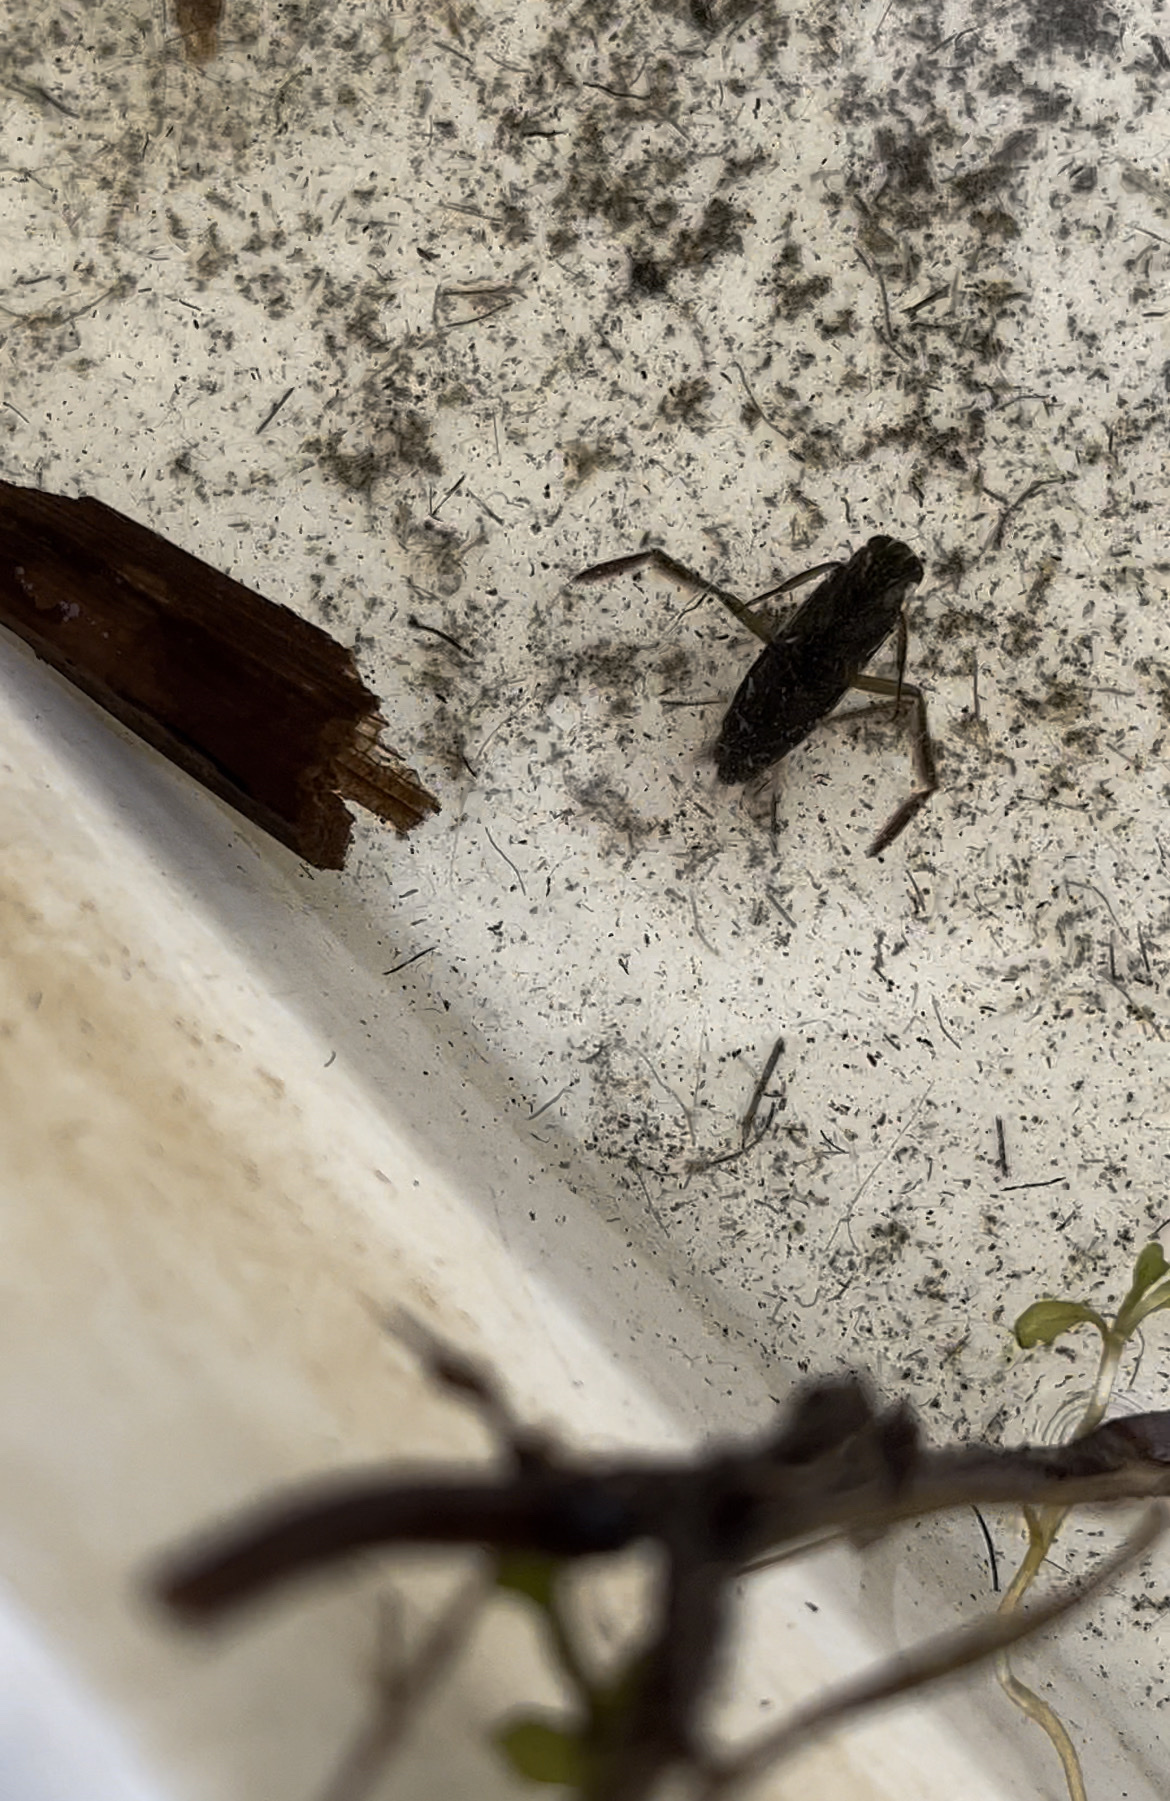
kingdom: Animalia
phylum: Arthropoda
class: Insecta
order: Hemiptera
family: Notonectidae
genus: Notonecta
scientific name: Notonecta
